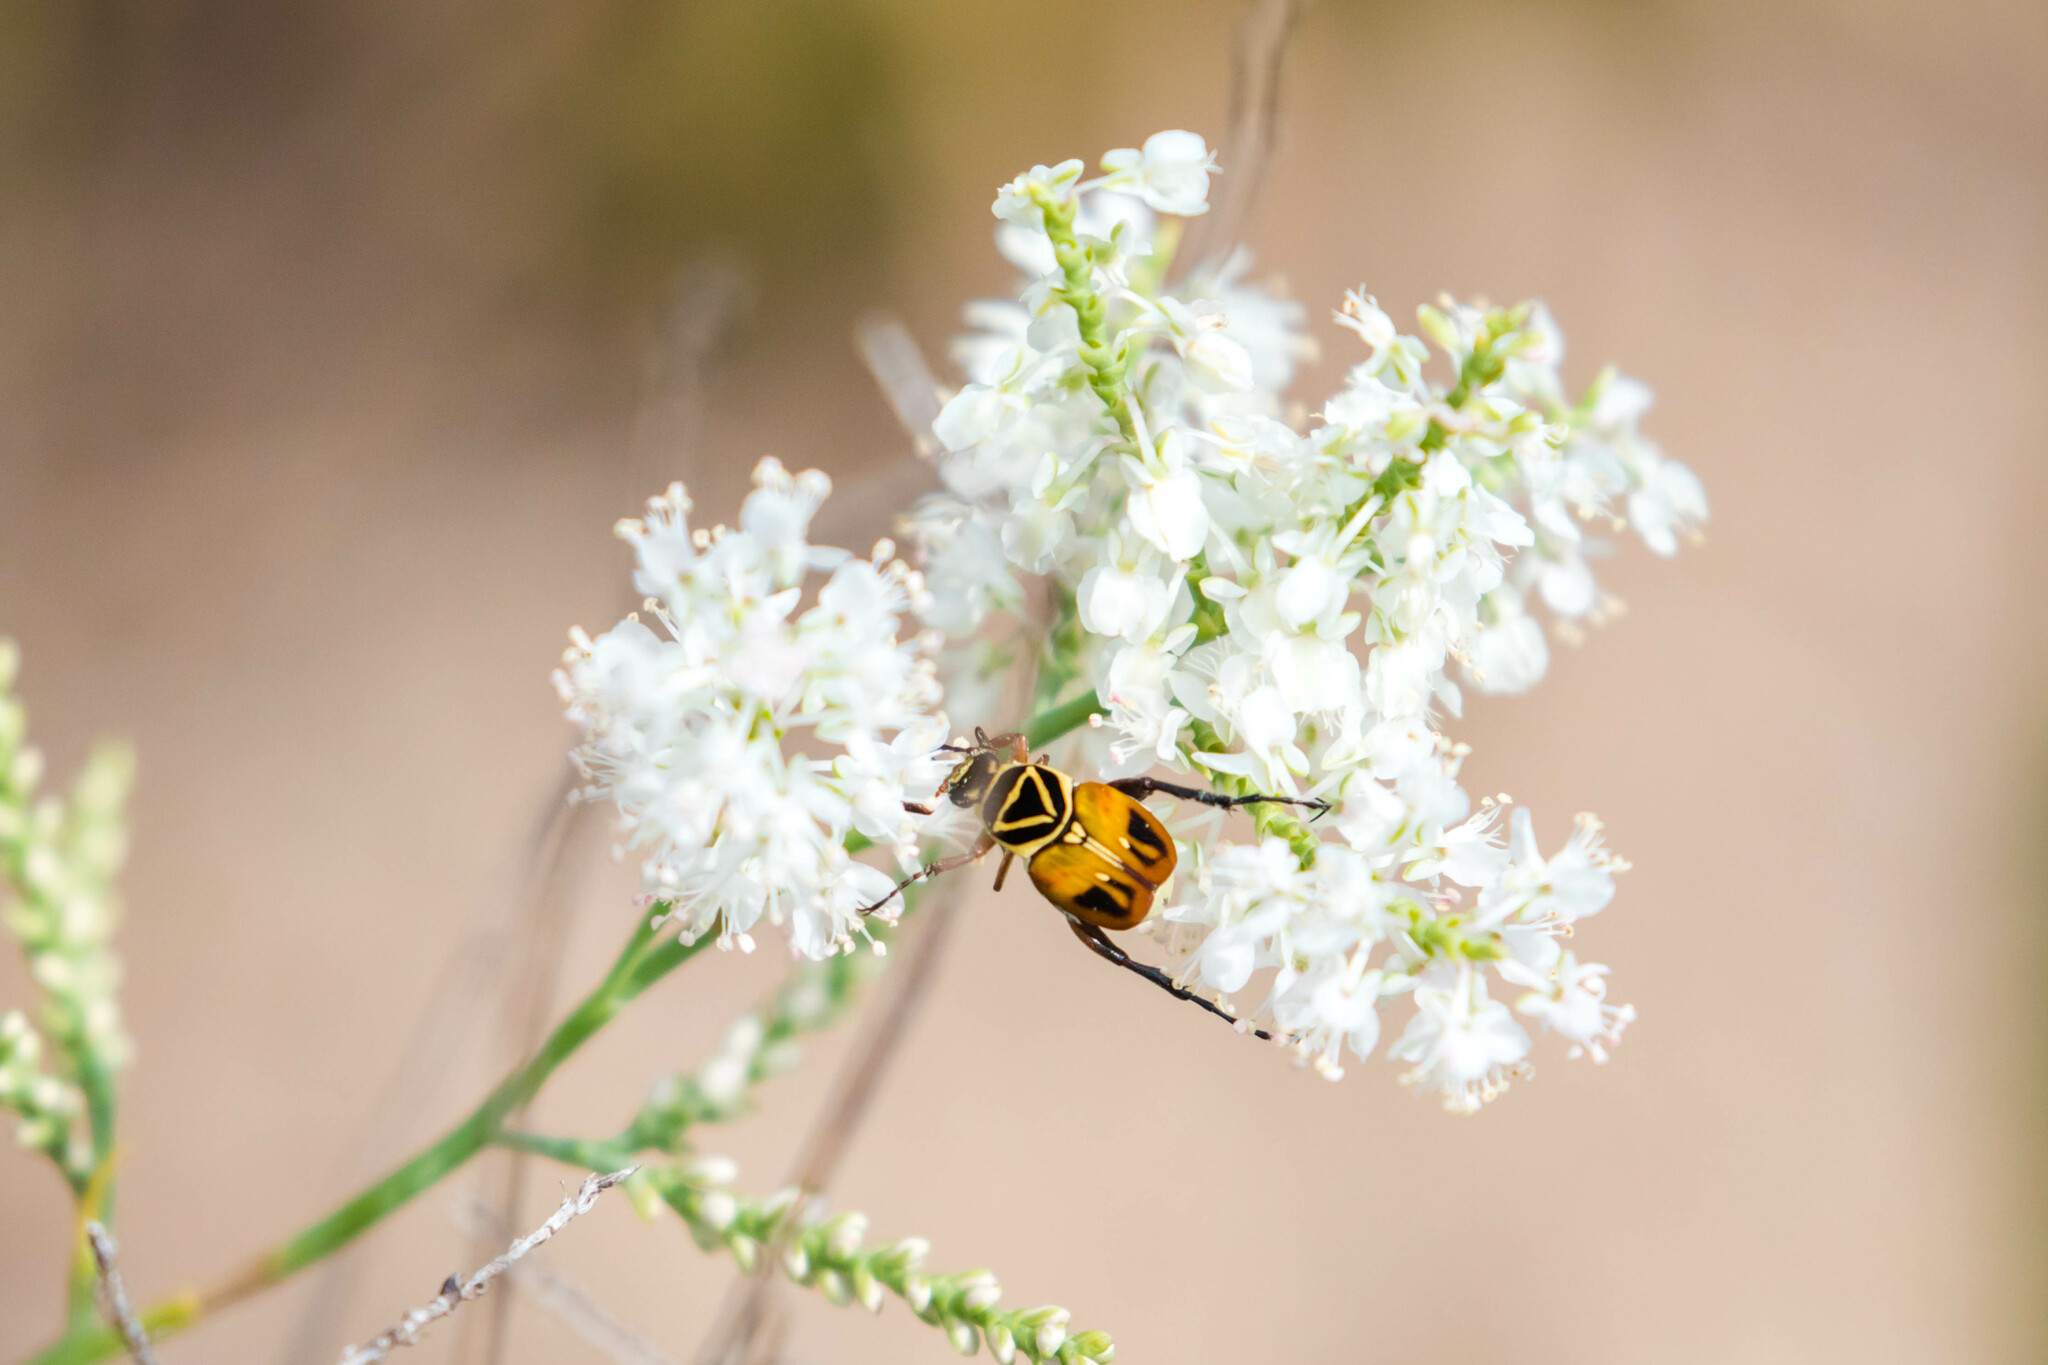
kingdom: Animalia
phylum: Arthropoda
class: Insecta
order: Coleoptera
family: Scarabaeidae
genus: Trigonopeltastes
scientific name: Trigonopeltastes delta
